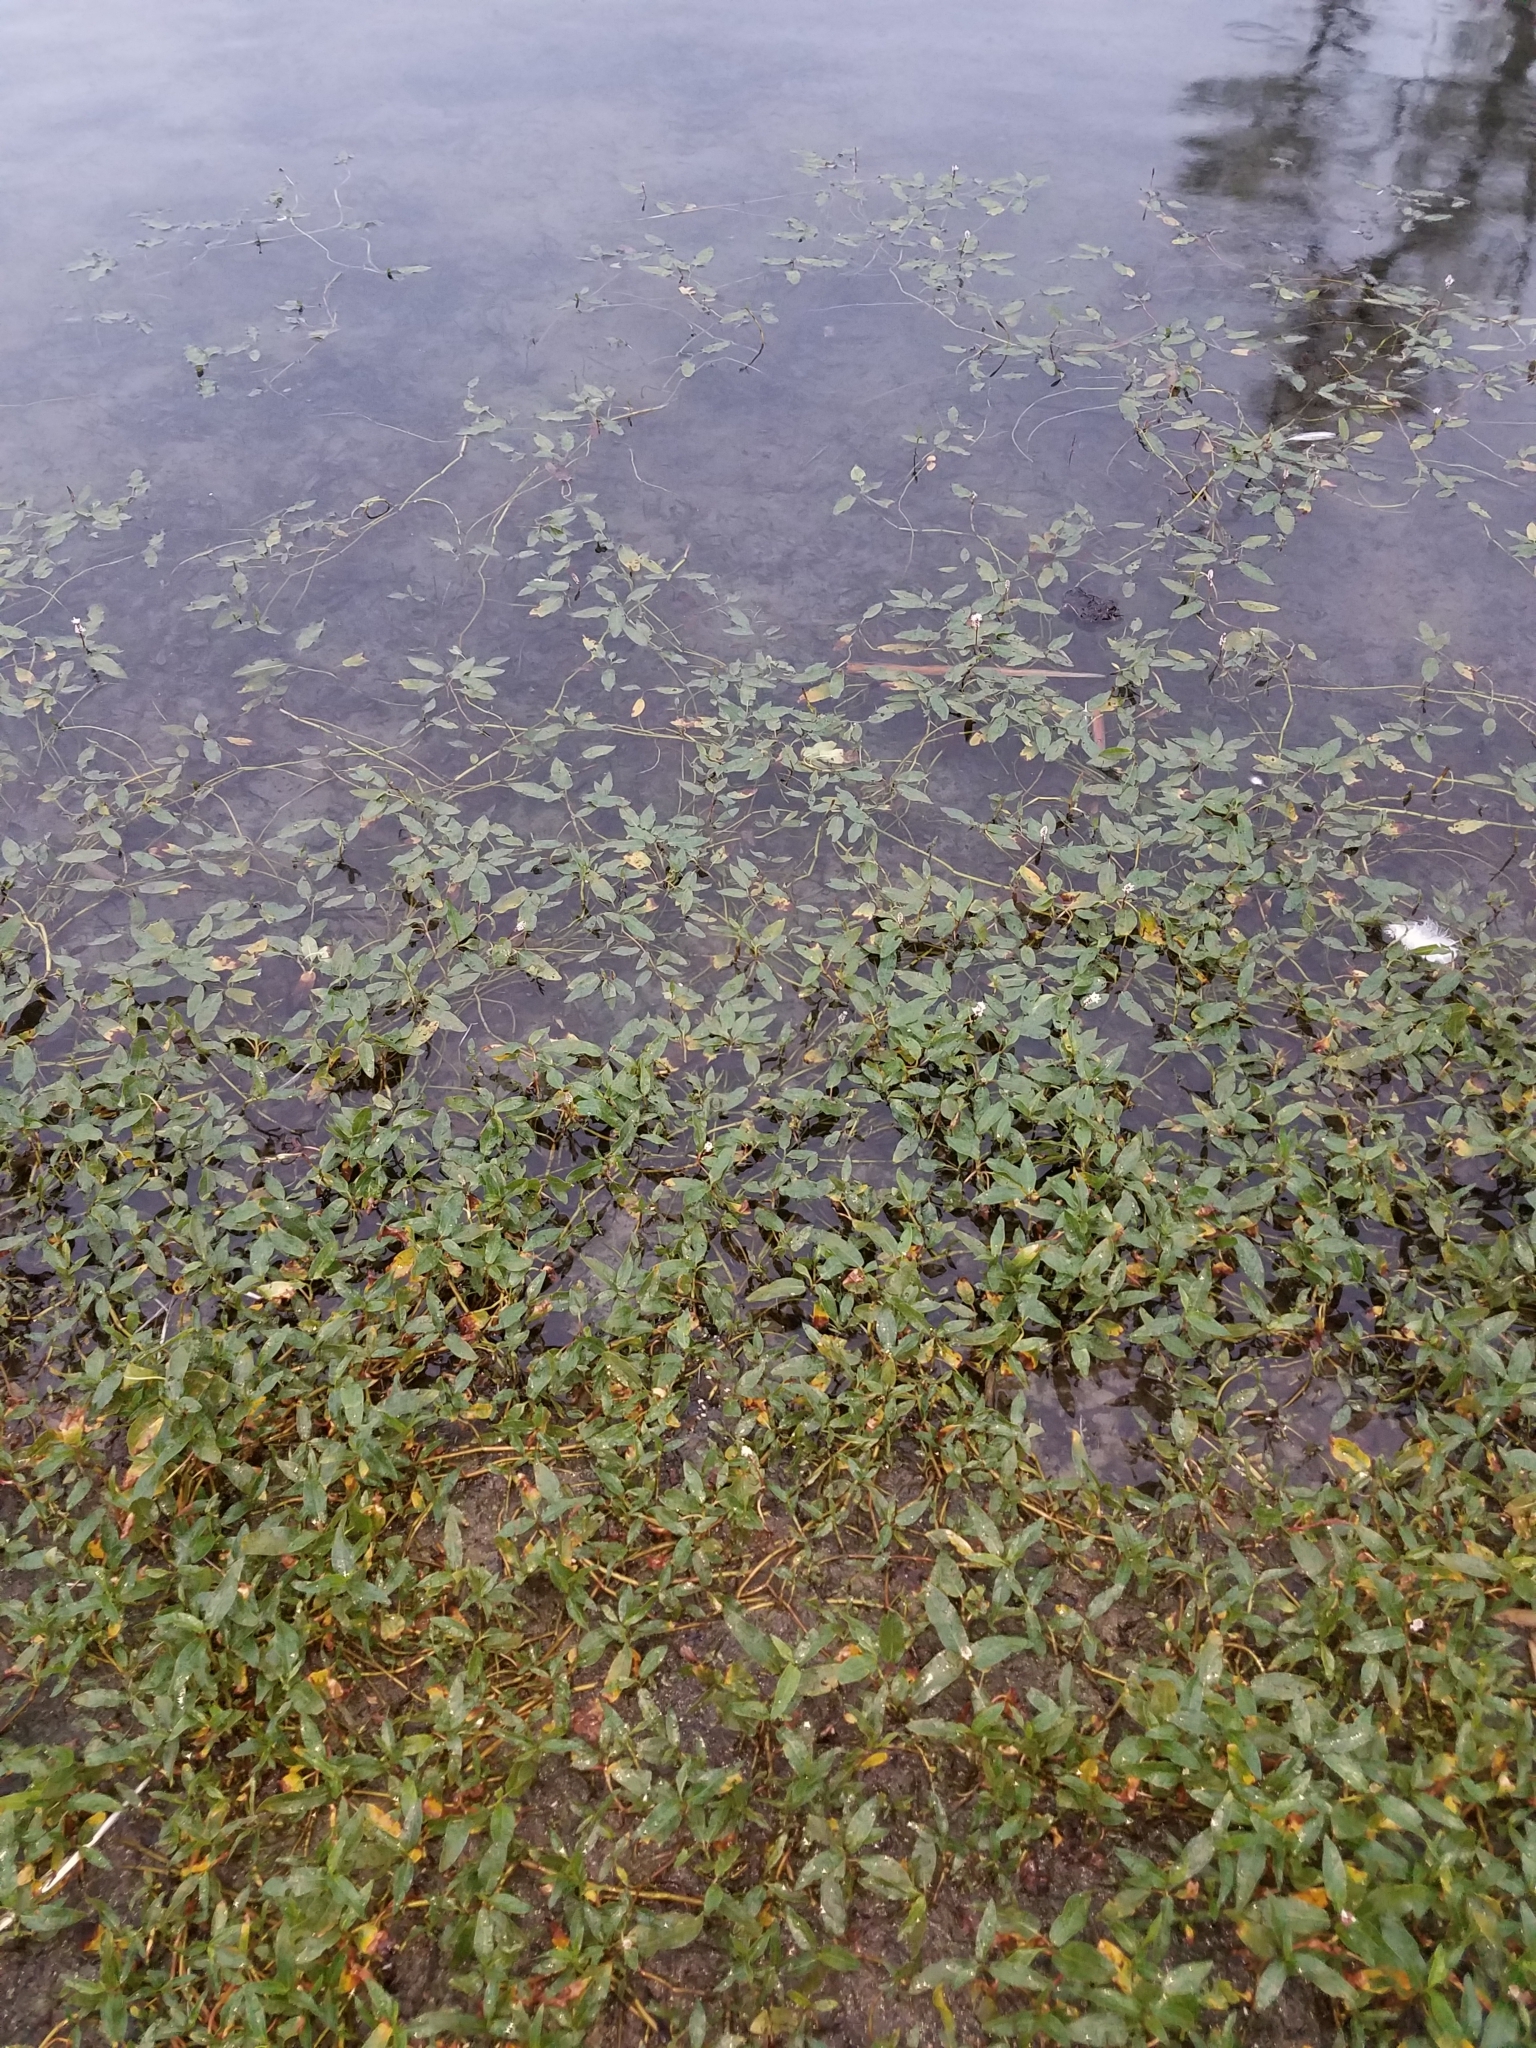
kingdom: Plantae
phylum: Tracheophyta
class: Magnoliopsida
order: Caryophyllales
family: Polygonaceae
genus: Persicaria
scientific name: Persicaria amphibia
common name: Amphibious bistort
